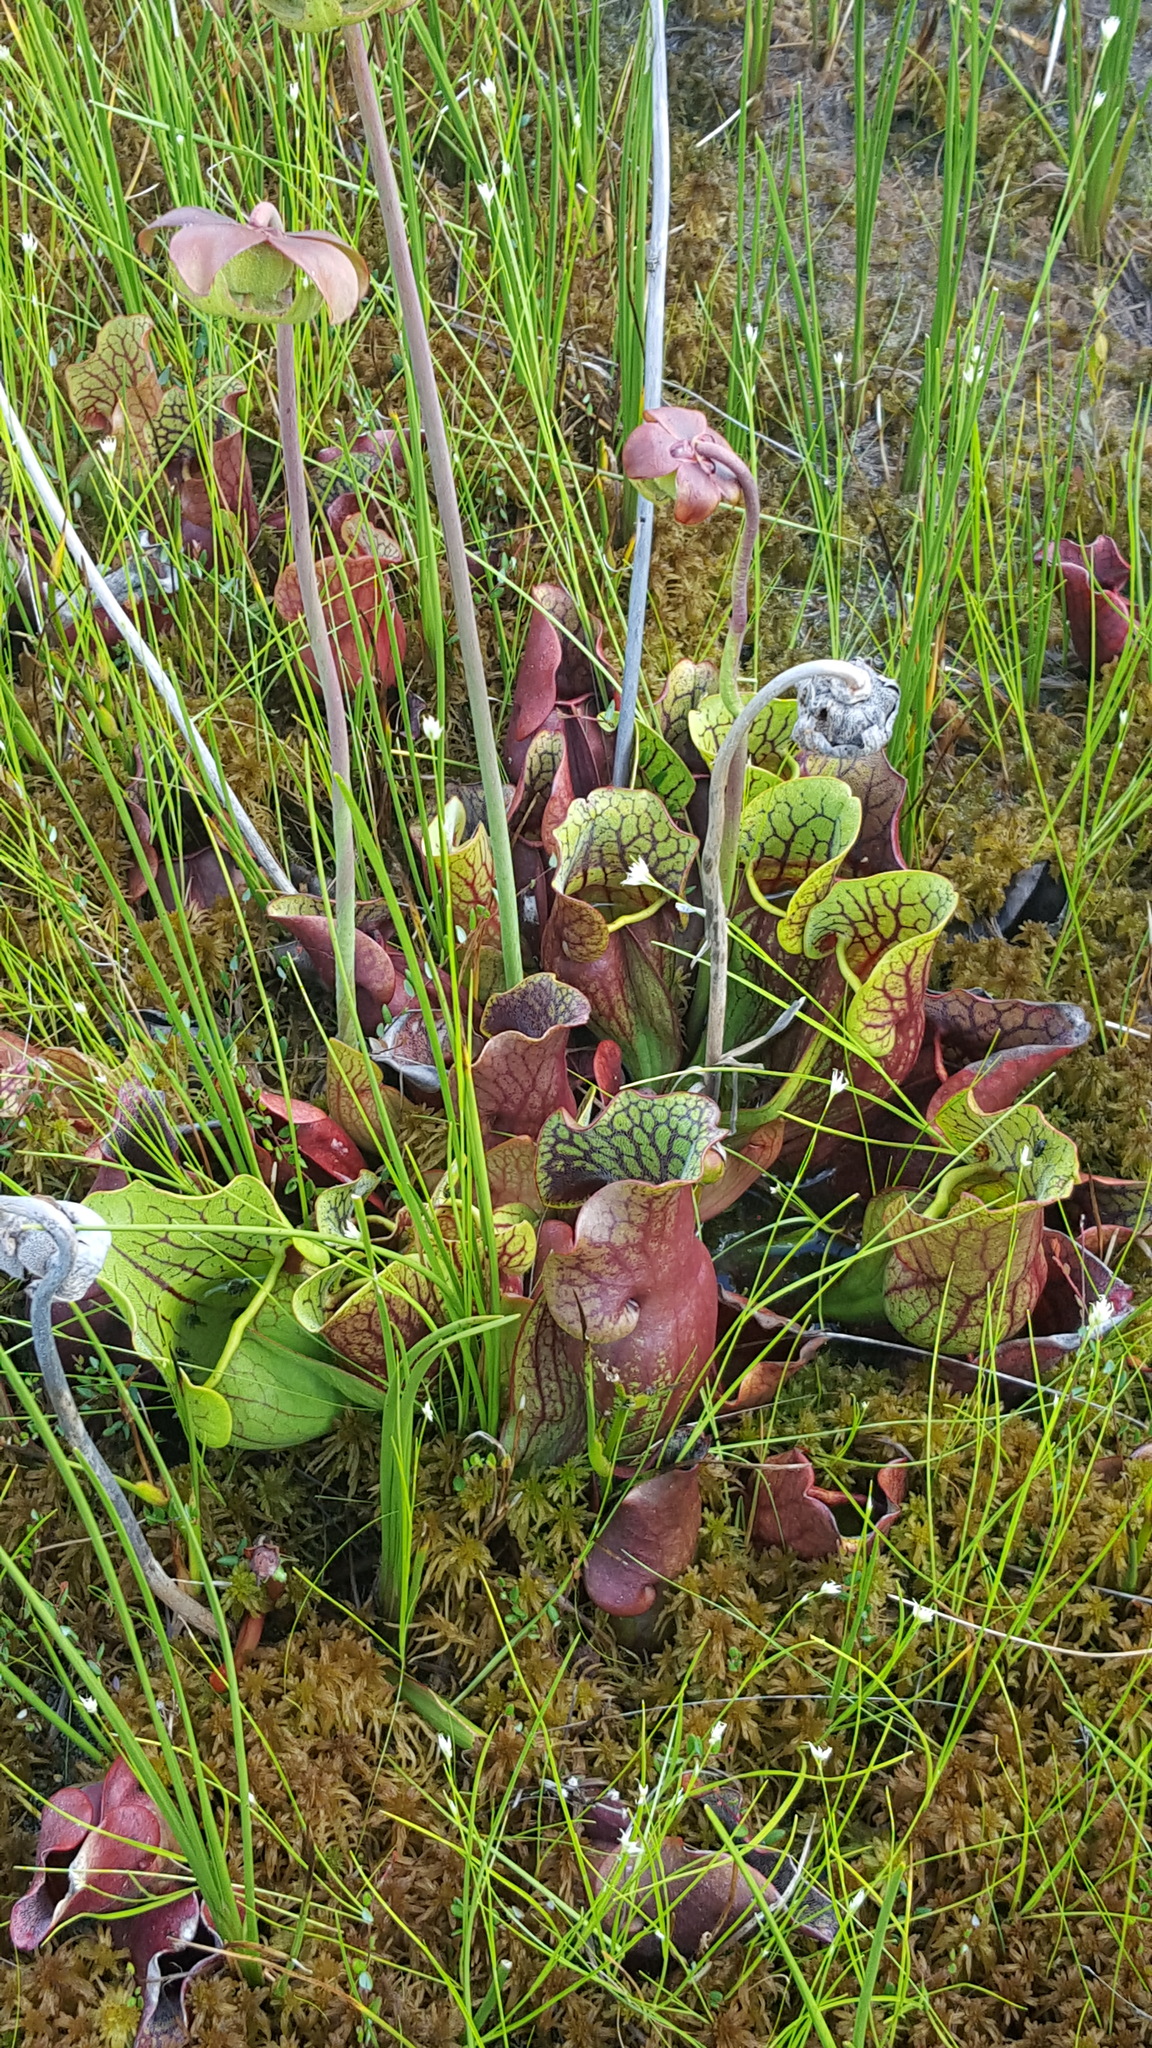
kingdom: Plantae
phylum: Tracheophyta
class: Magnoliopsida
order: Ericales
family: Sarraceniaceae
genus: Sarracenia
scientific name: Sarracenia purpurea
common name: Pitcherplant
